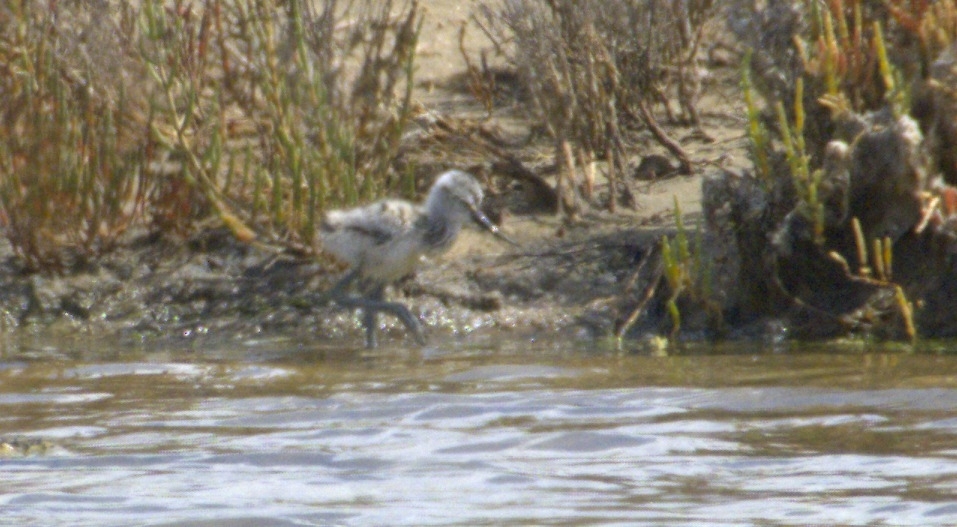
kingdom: Animalia
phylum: Chordata
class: Aves
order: Charadriiformes
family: Recurvirostridae
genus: Recurvirostra
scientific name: Recurvirostra avosetta
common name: Pied avocet
